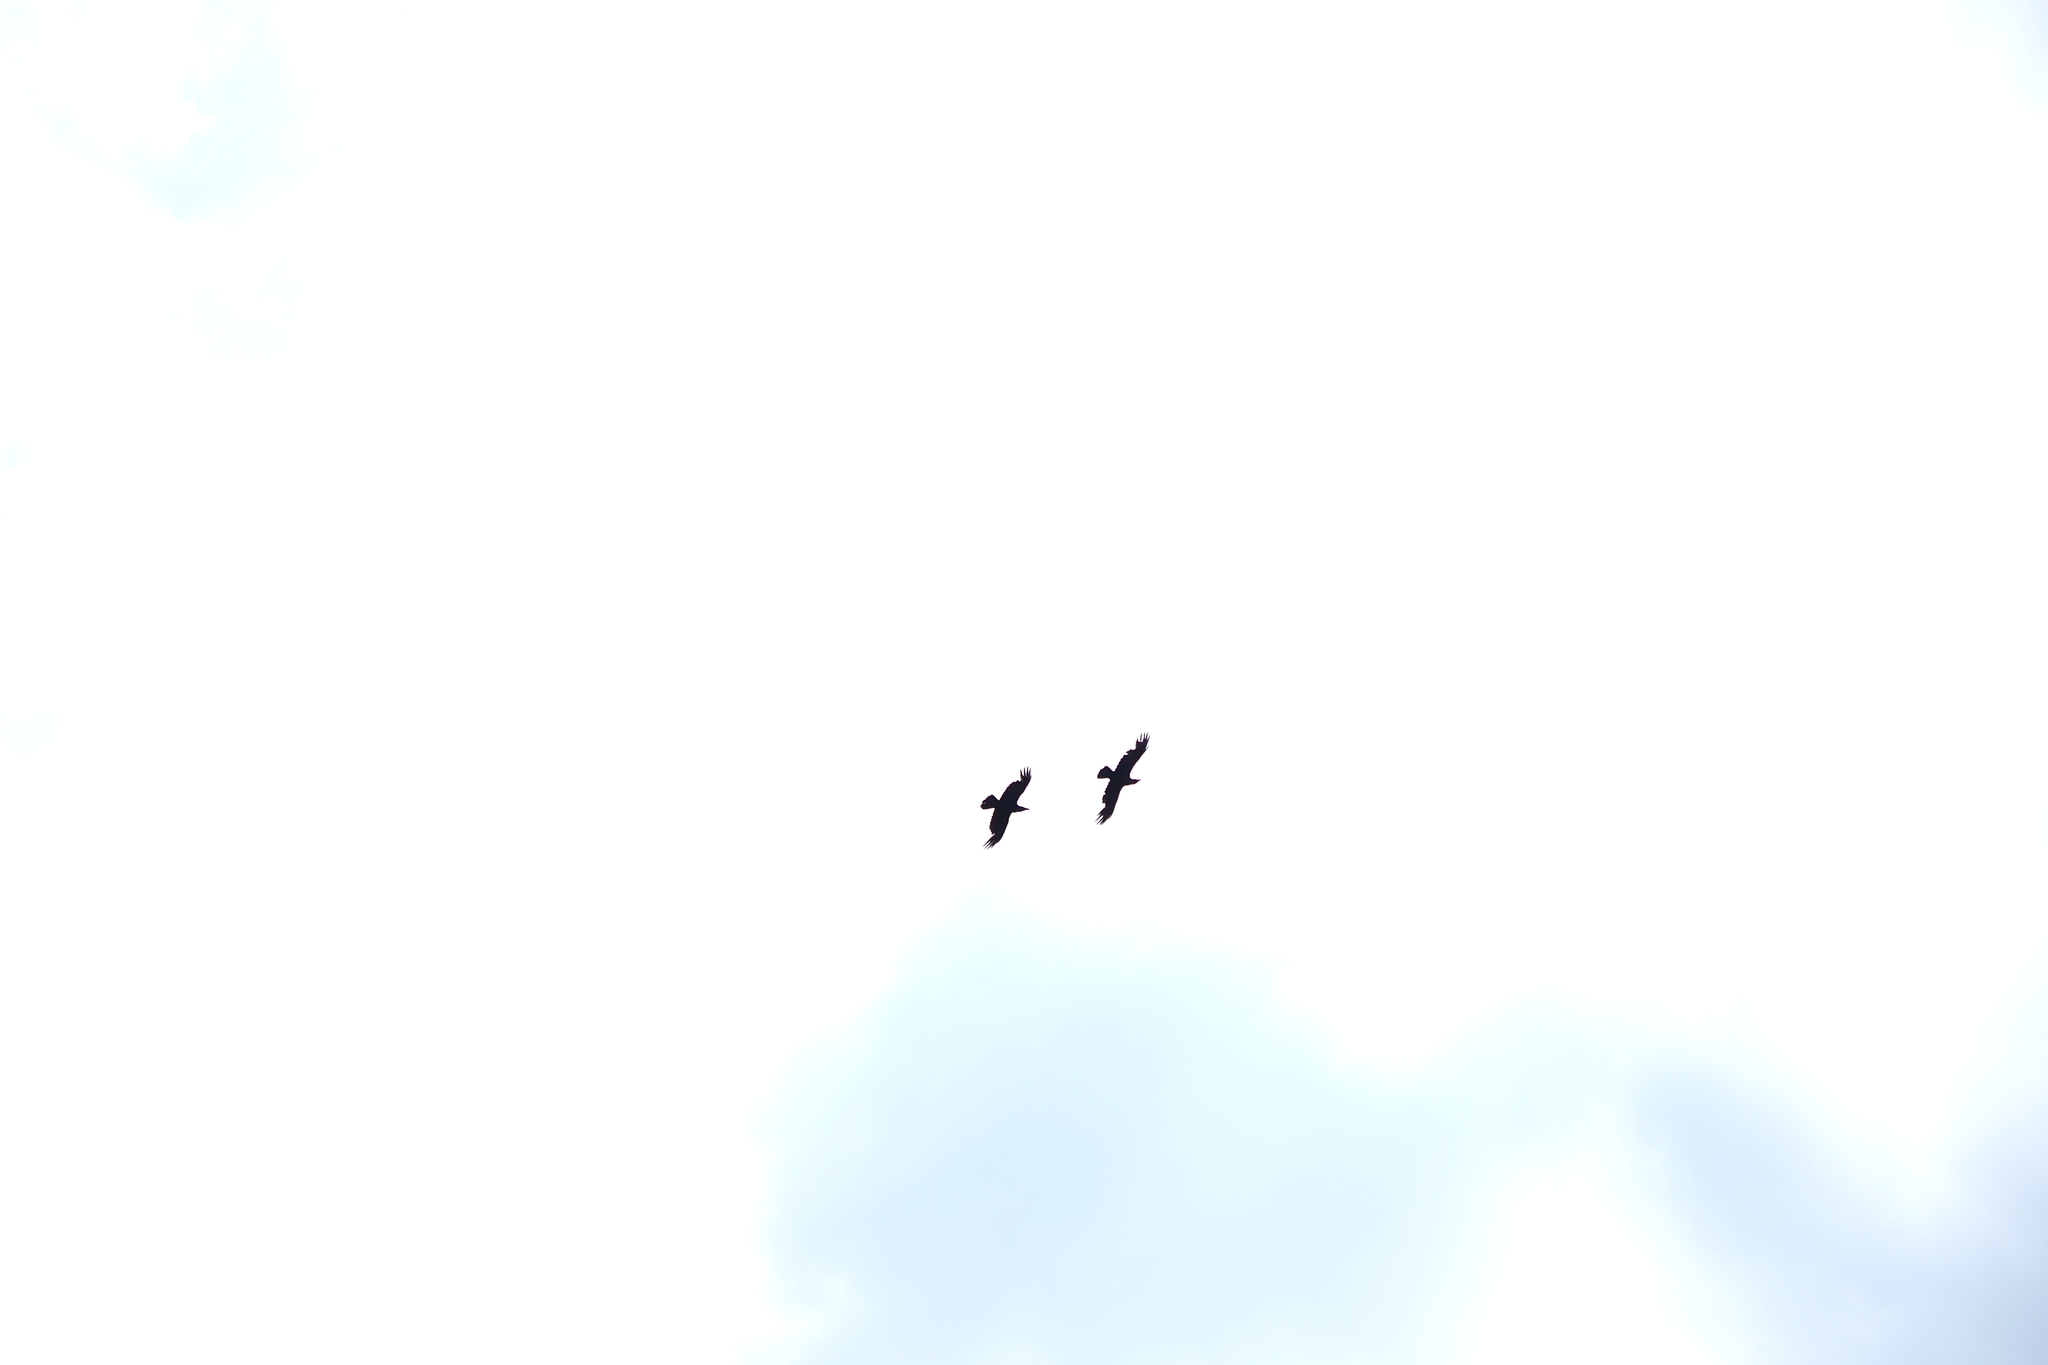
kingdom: Animalia
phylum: Chordata
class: Aves
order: Passeriformes
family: Corvidae
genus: Corvus
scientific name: Corvus corax
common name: Common raven
